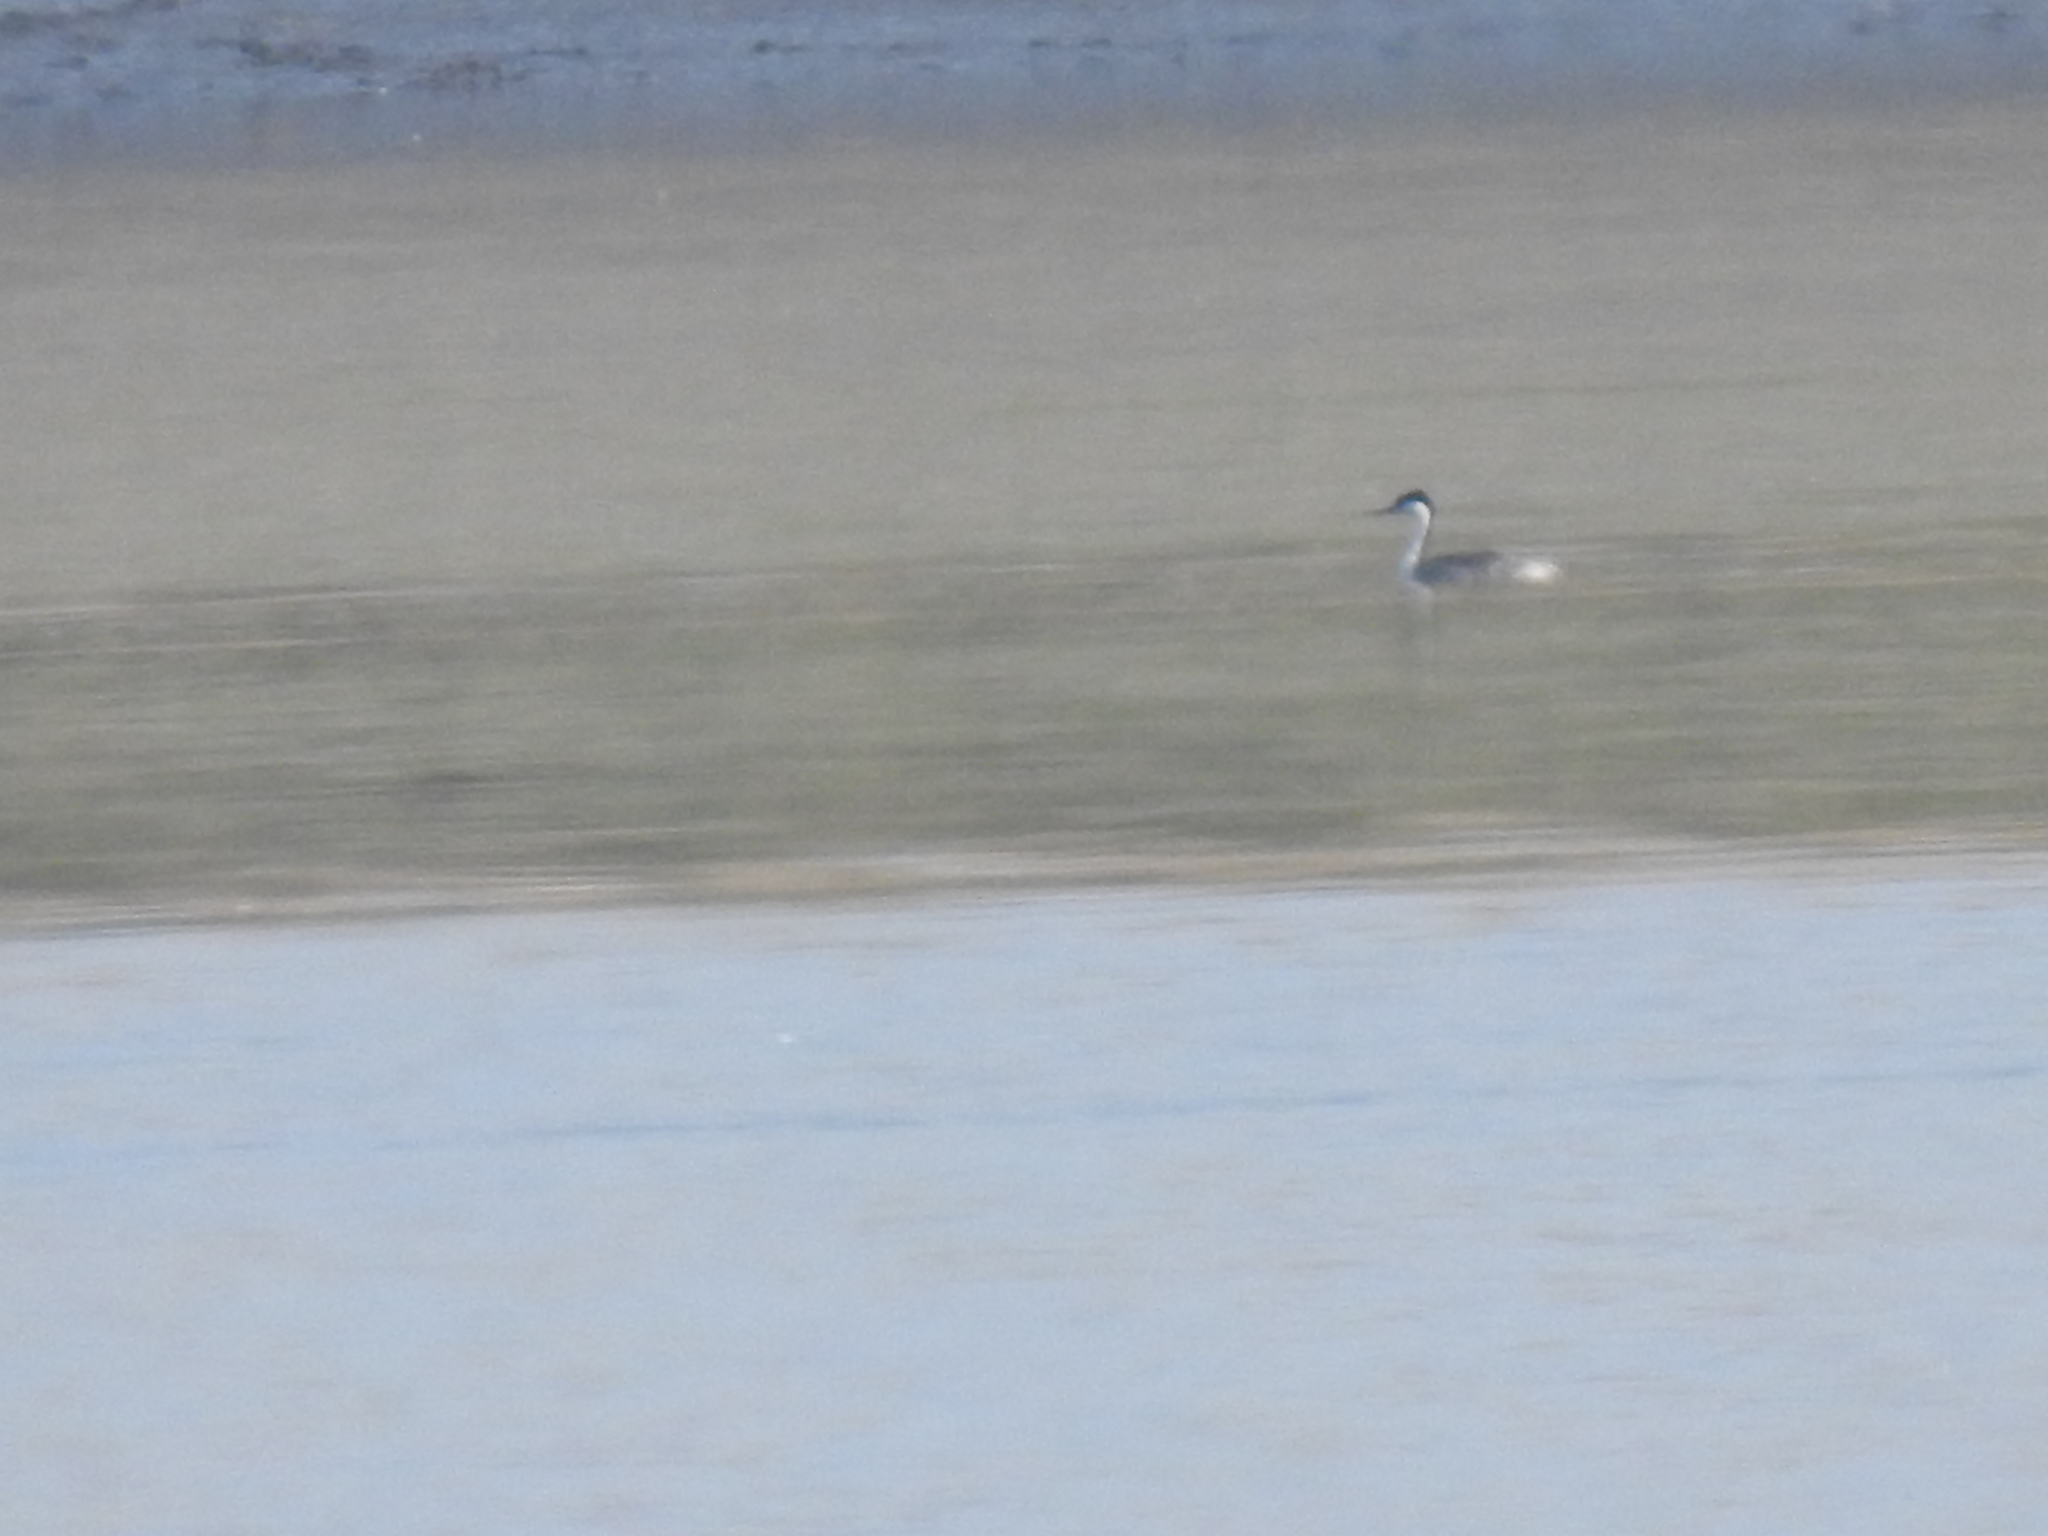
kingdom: Animalia
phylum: Chordata
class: Aves
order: Podicipediformes
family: Podicipedidae
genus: Aechmophorus
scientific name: Aechmophorus occidentalis
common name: Western grebe
